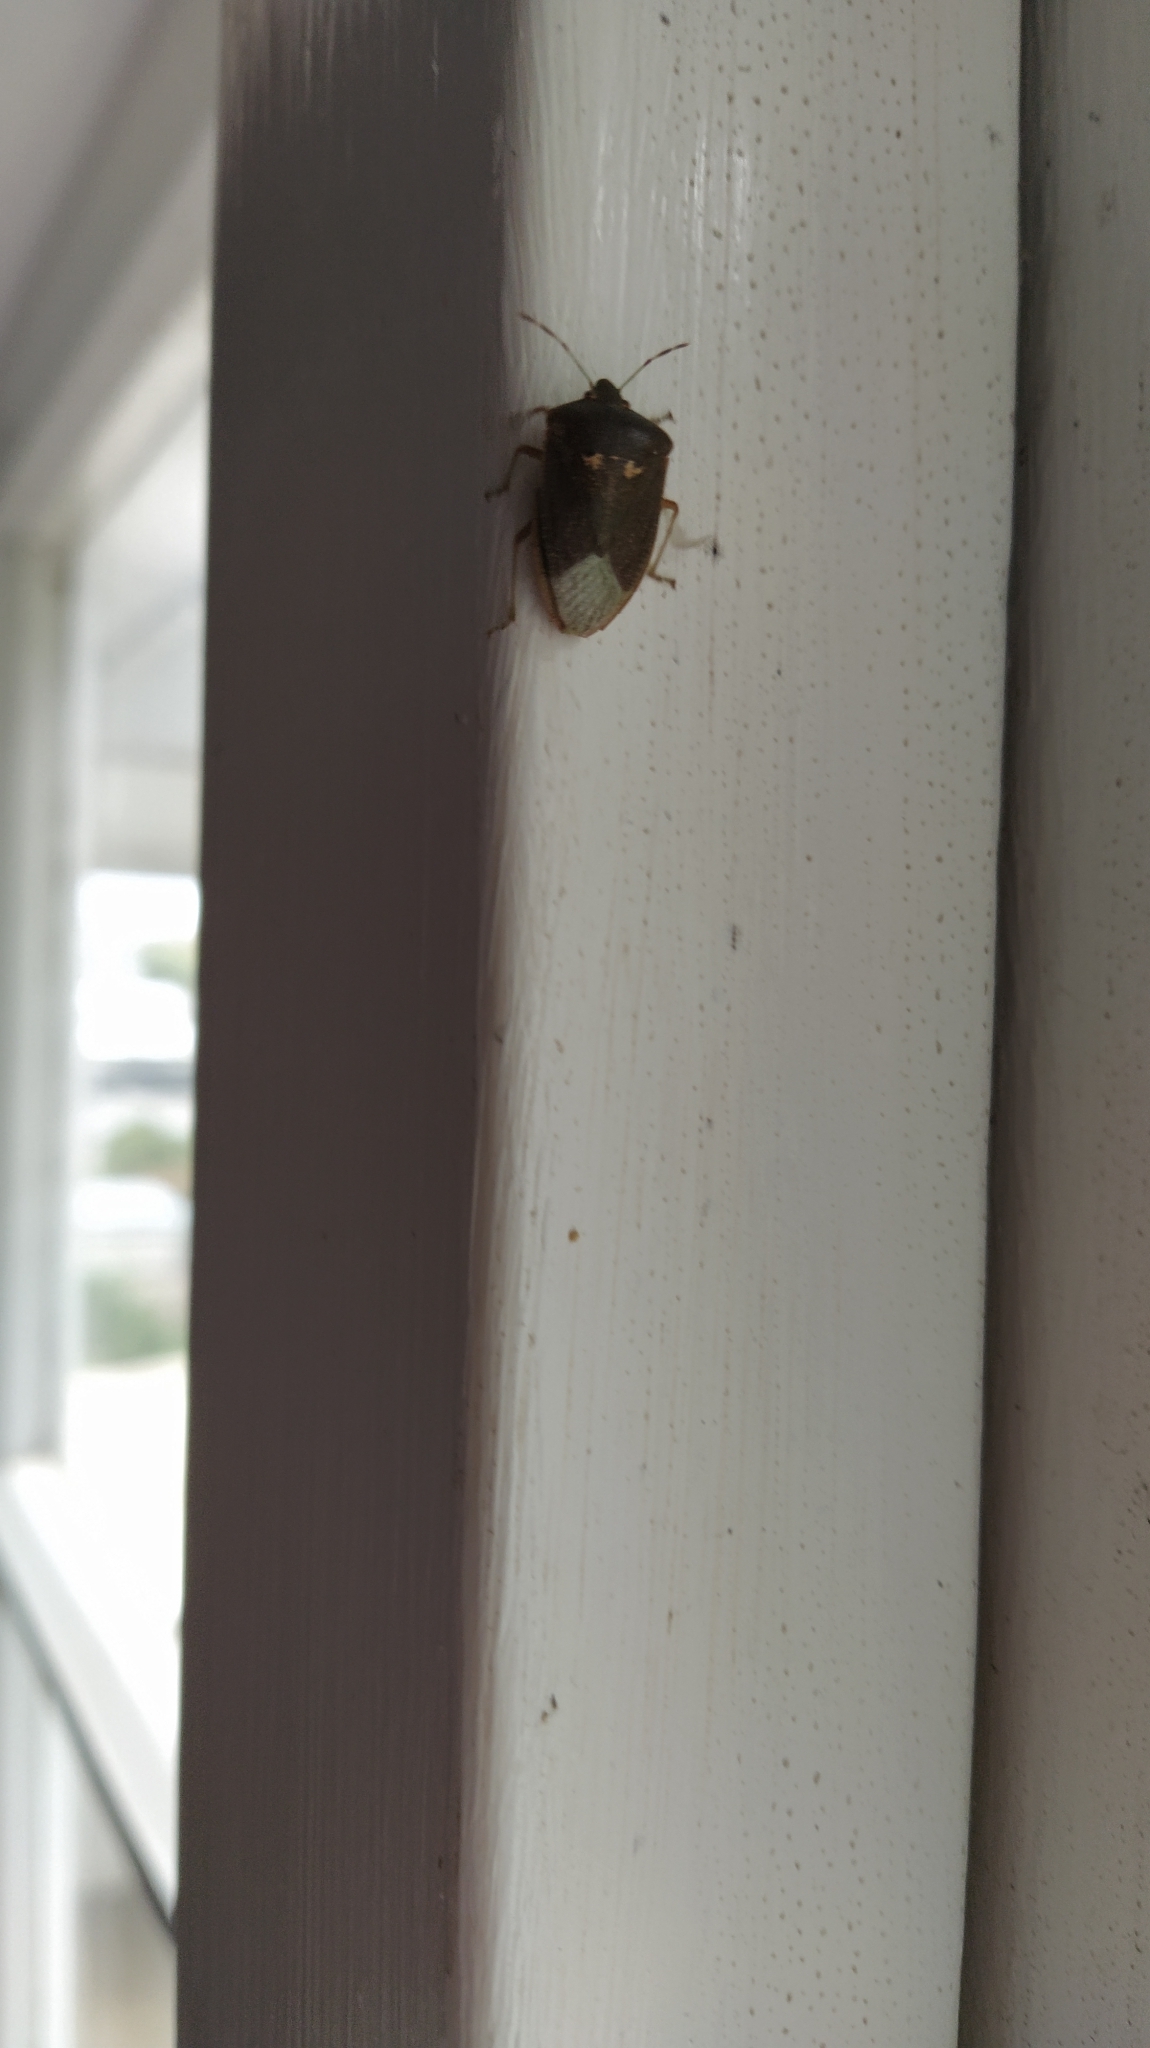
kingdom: Animalia
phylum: Arthropoda
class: Insecta
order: Hemiptera
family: Pentatomidae
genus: Nezara
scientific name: Nezara viridula
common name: Southern green stink bug
